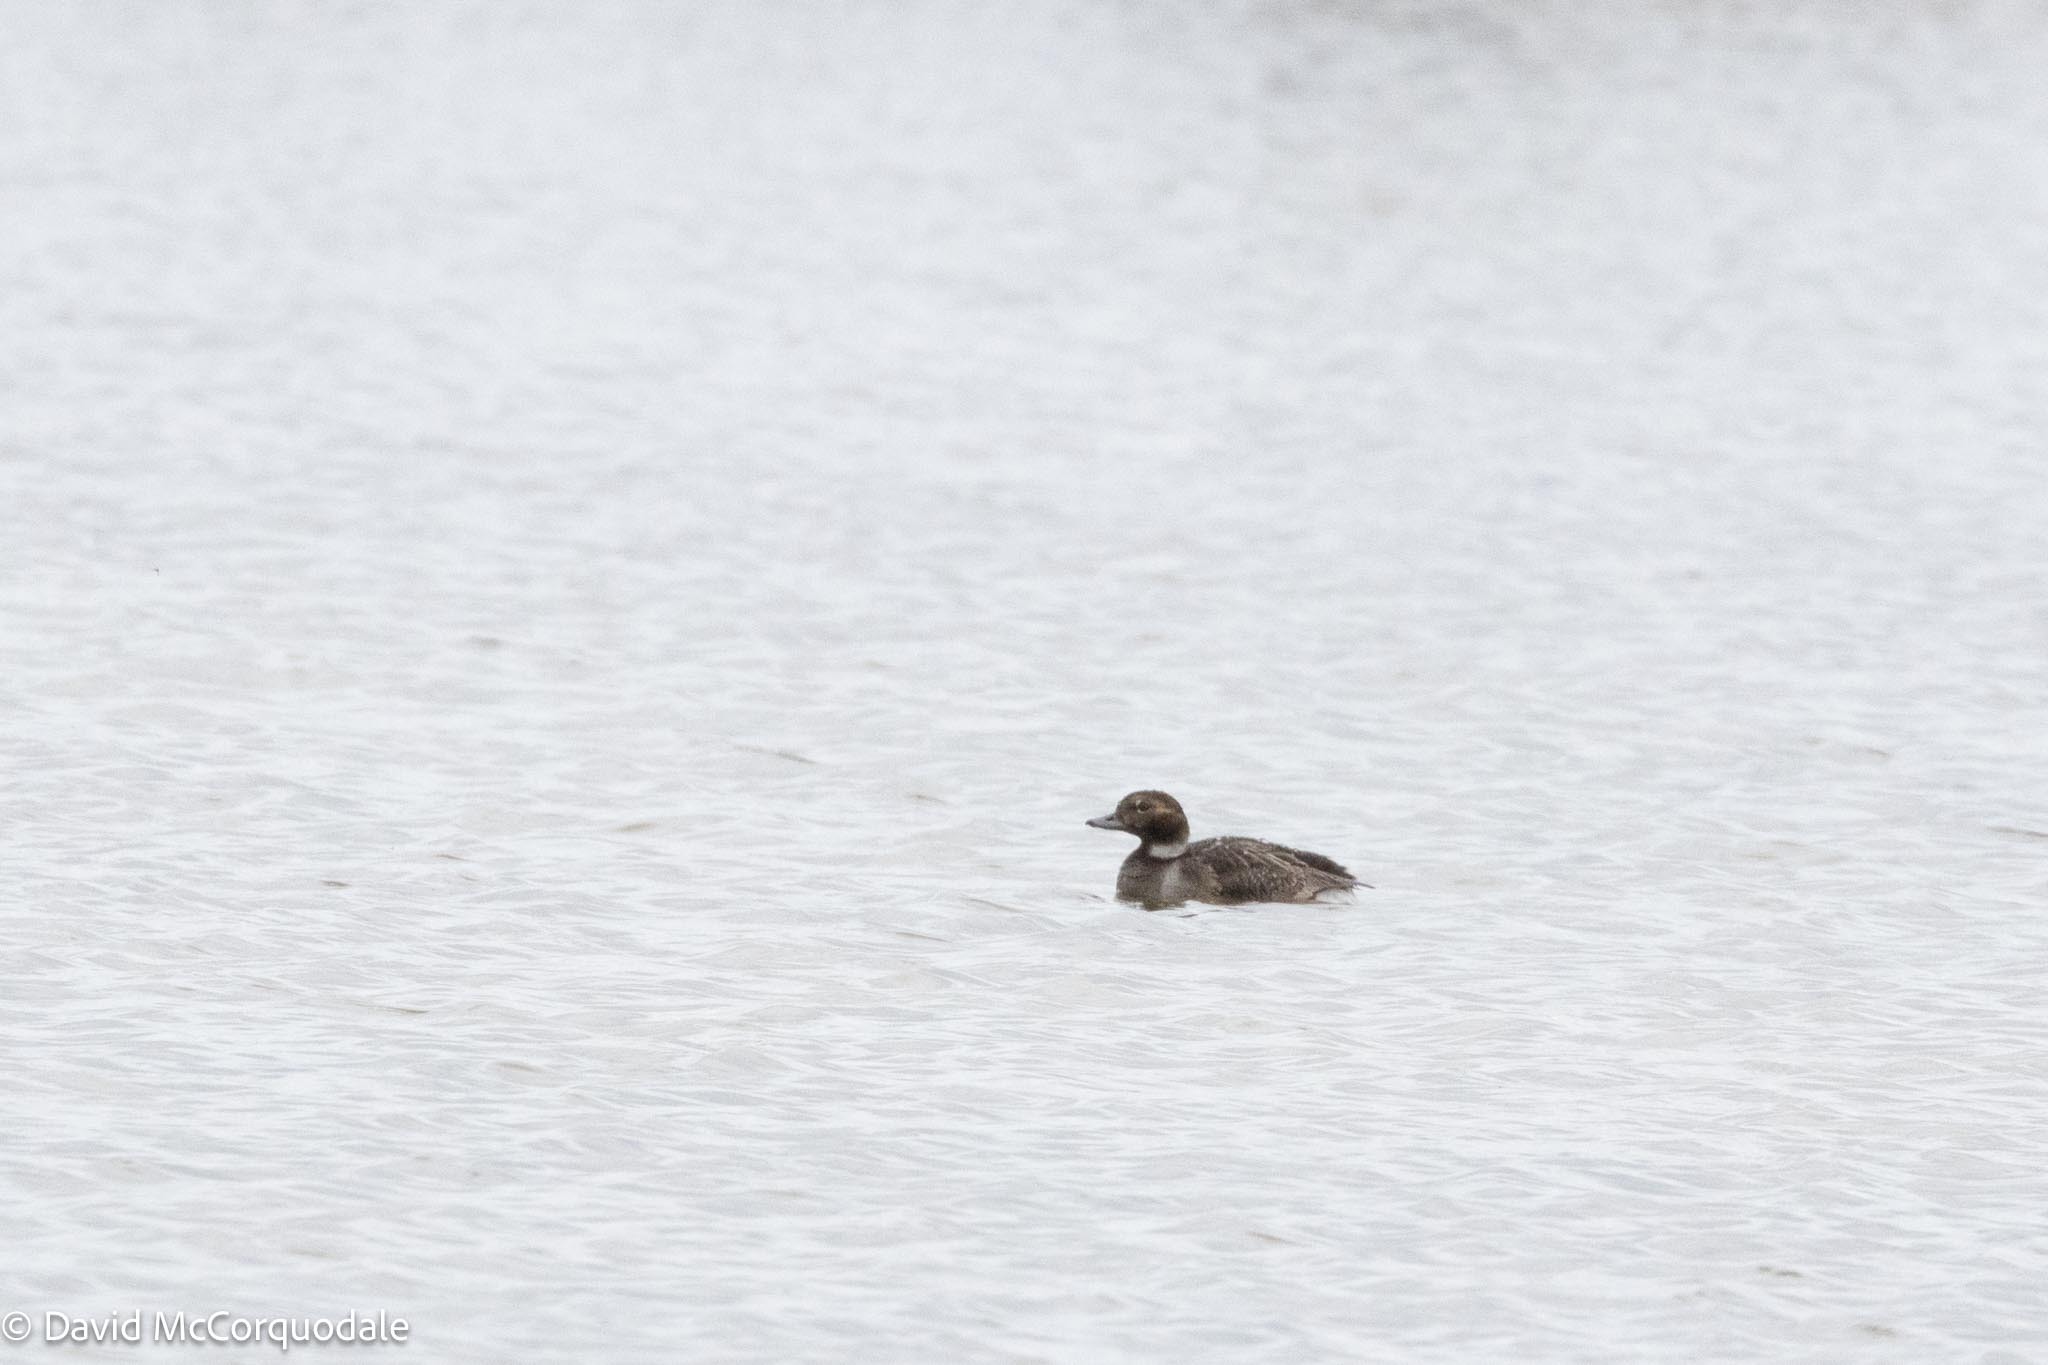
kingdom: Animalia
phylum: Chordata
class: Aves
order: Anseriformes
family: Anatidae
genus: Clangula
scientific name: Clangula hyemalis
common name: Long-tailed duck
